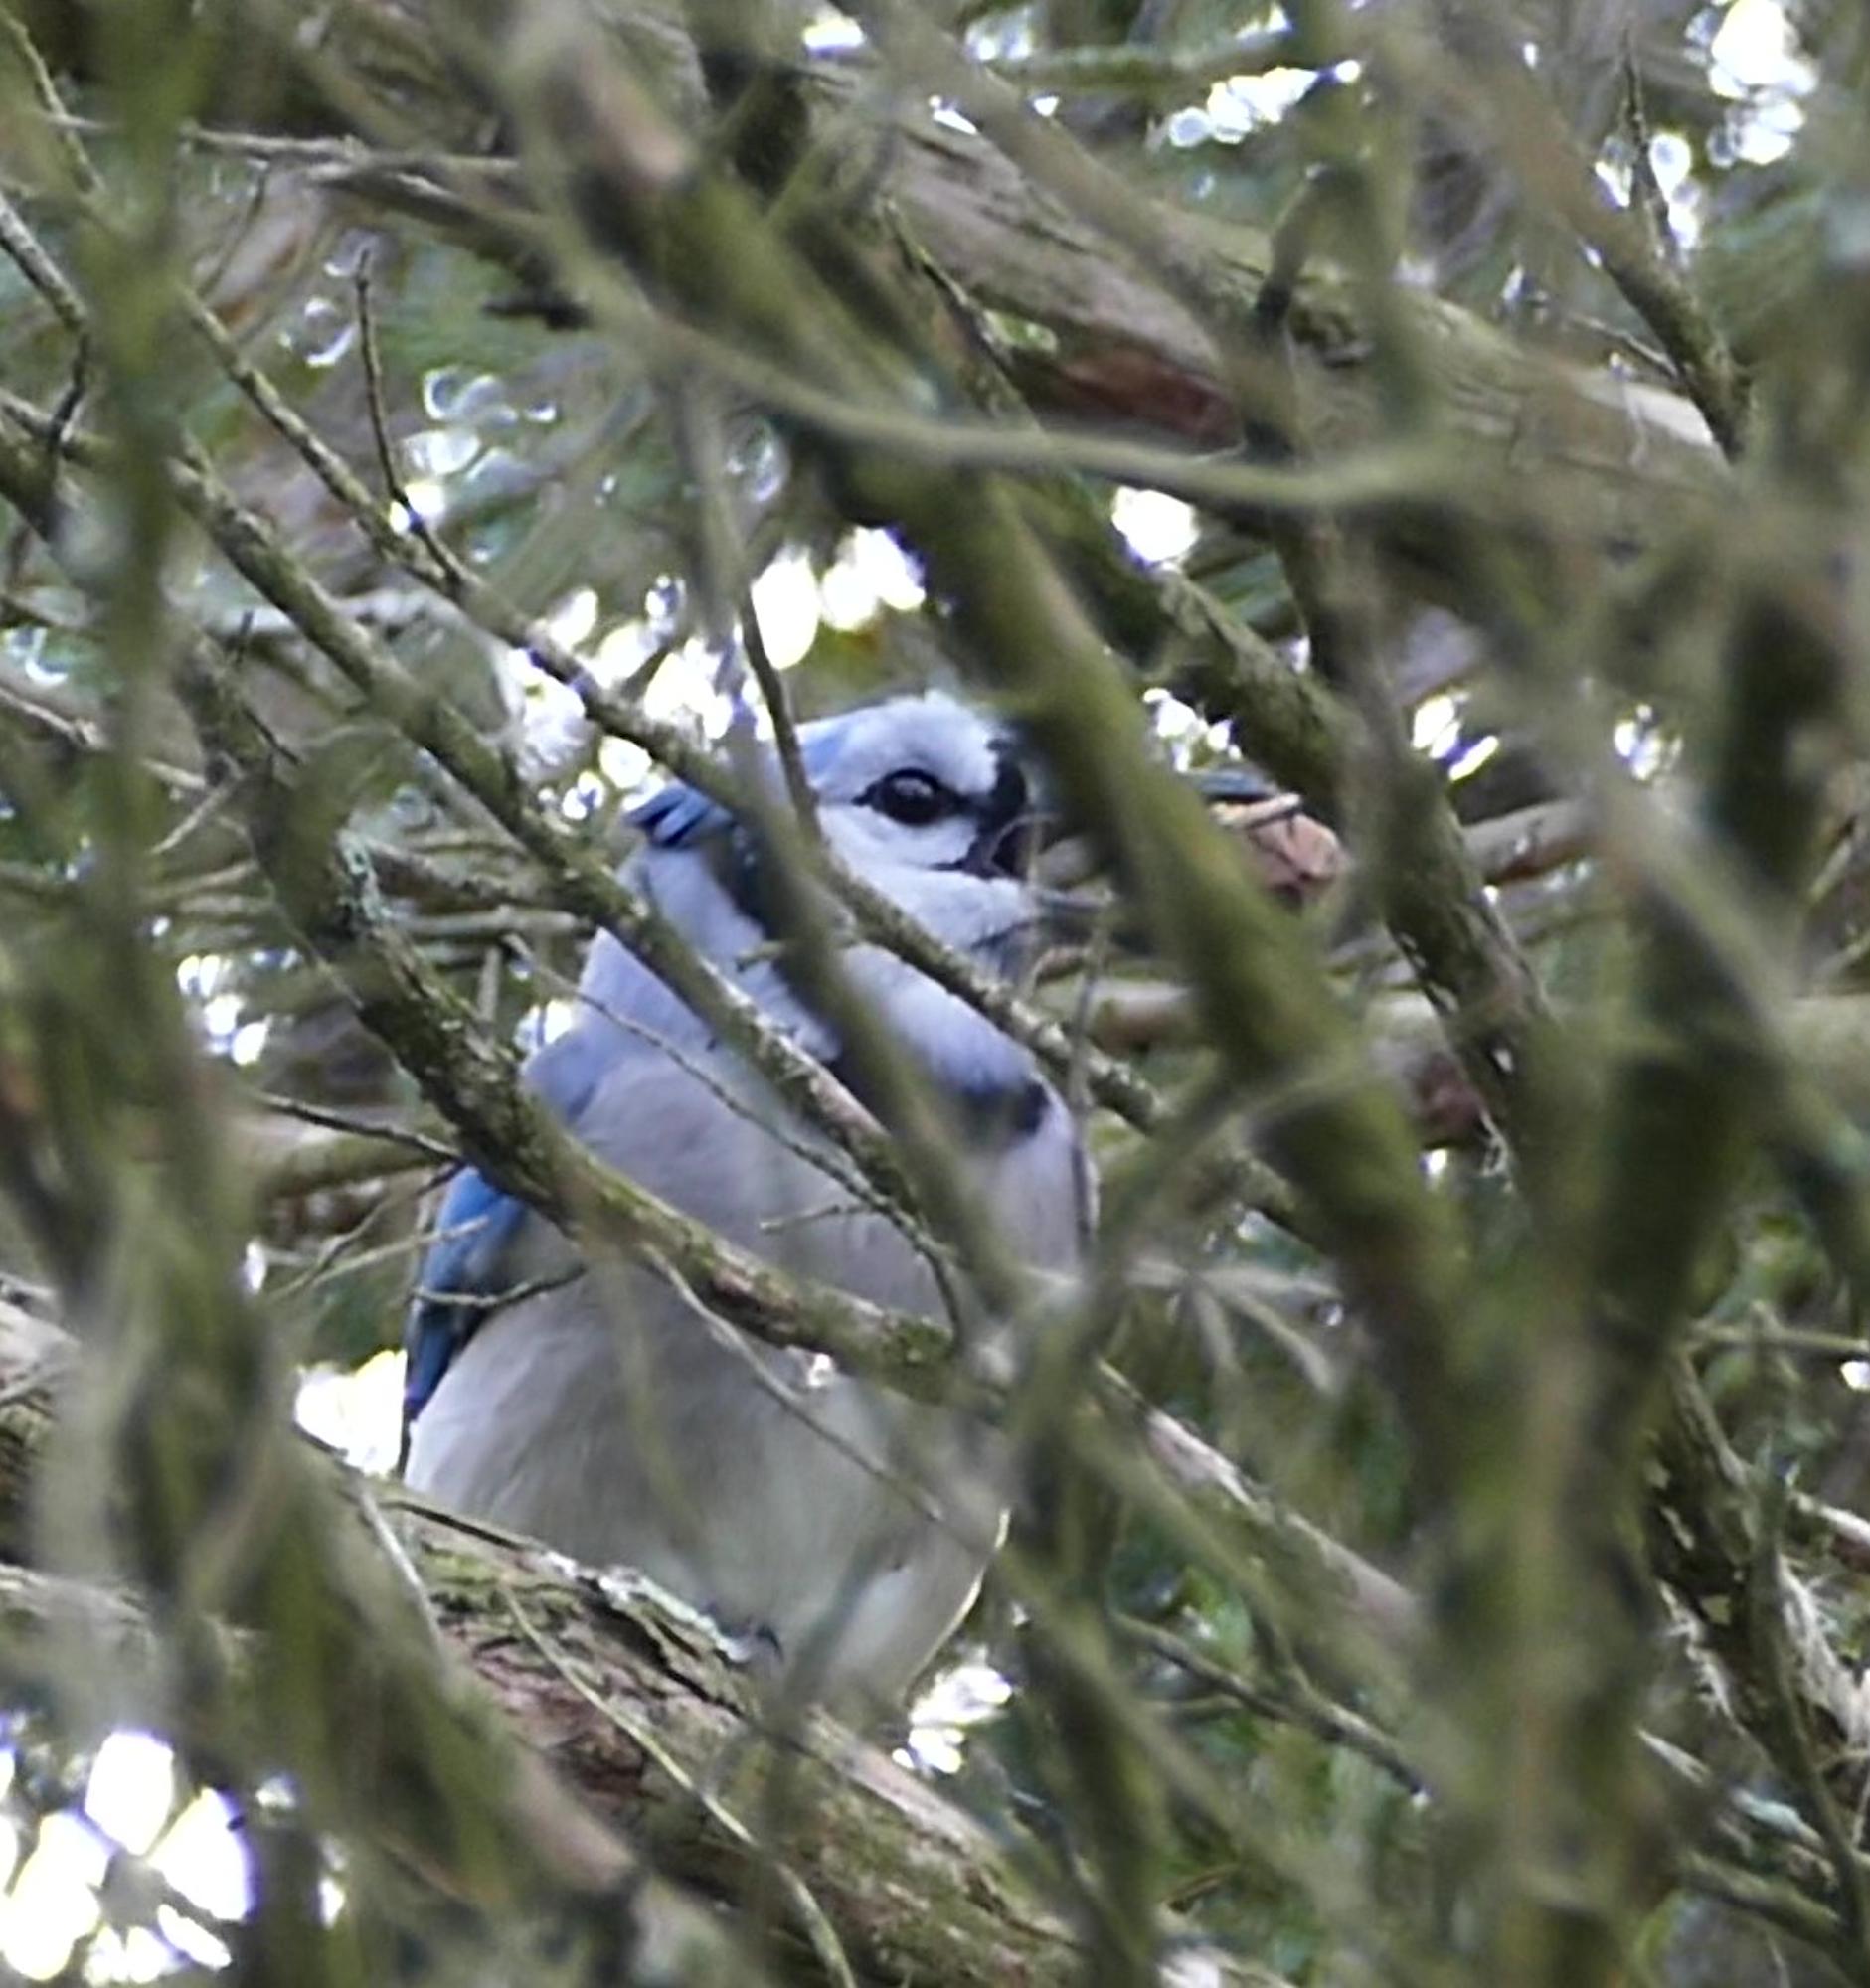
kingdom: Animalia
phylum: Chordata
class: Aves
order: Passeriformes
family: Corvidae
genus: Cyanocitta
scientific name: Cyanocitta cristata
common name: Blue jay
